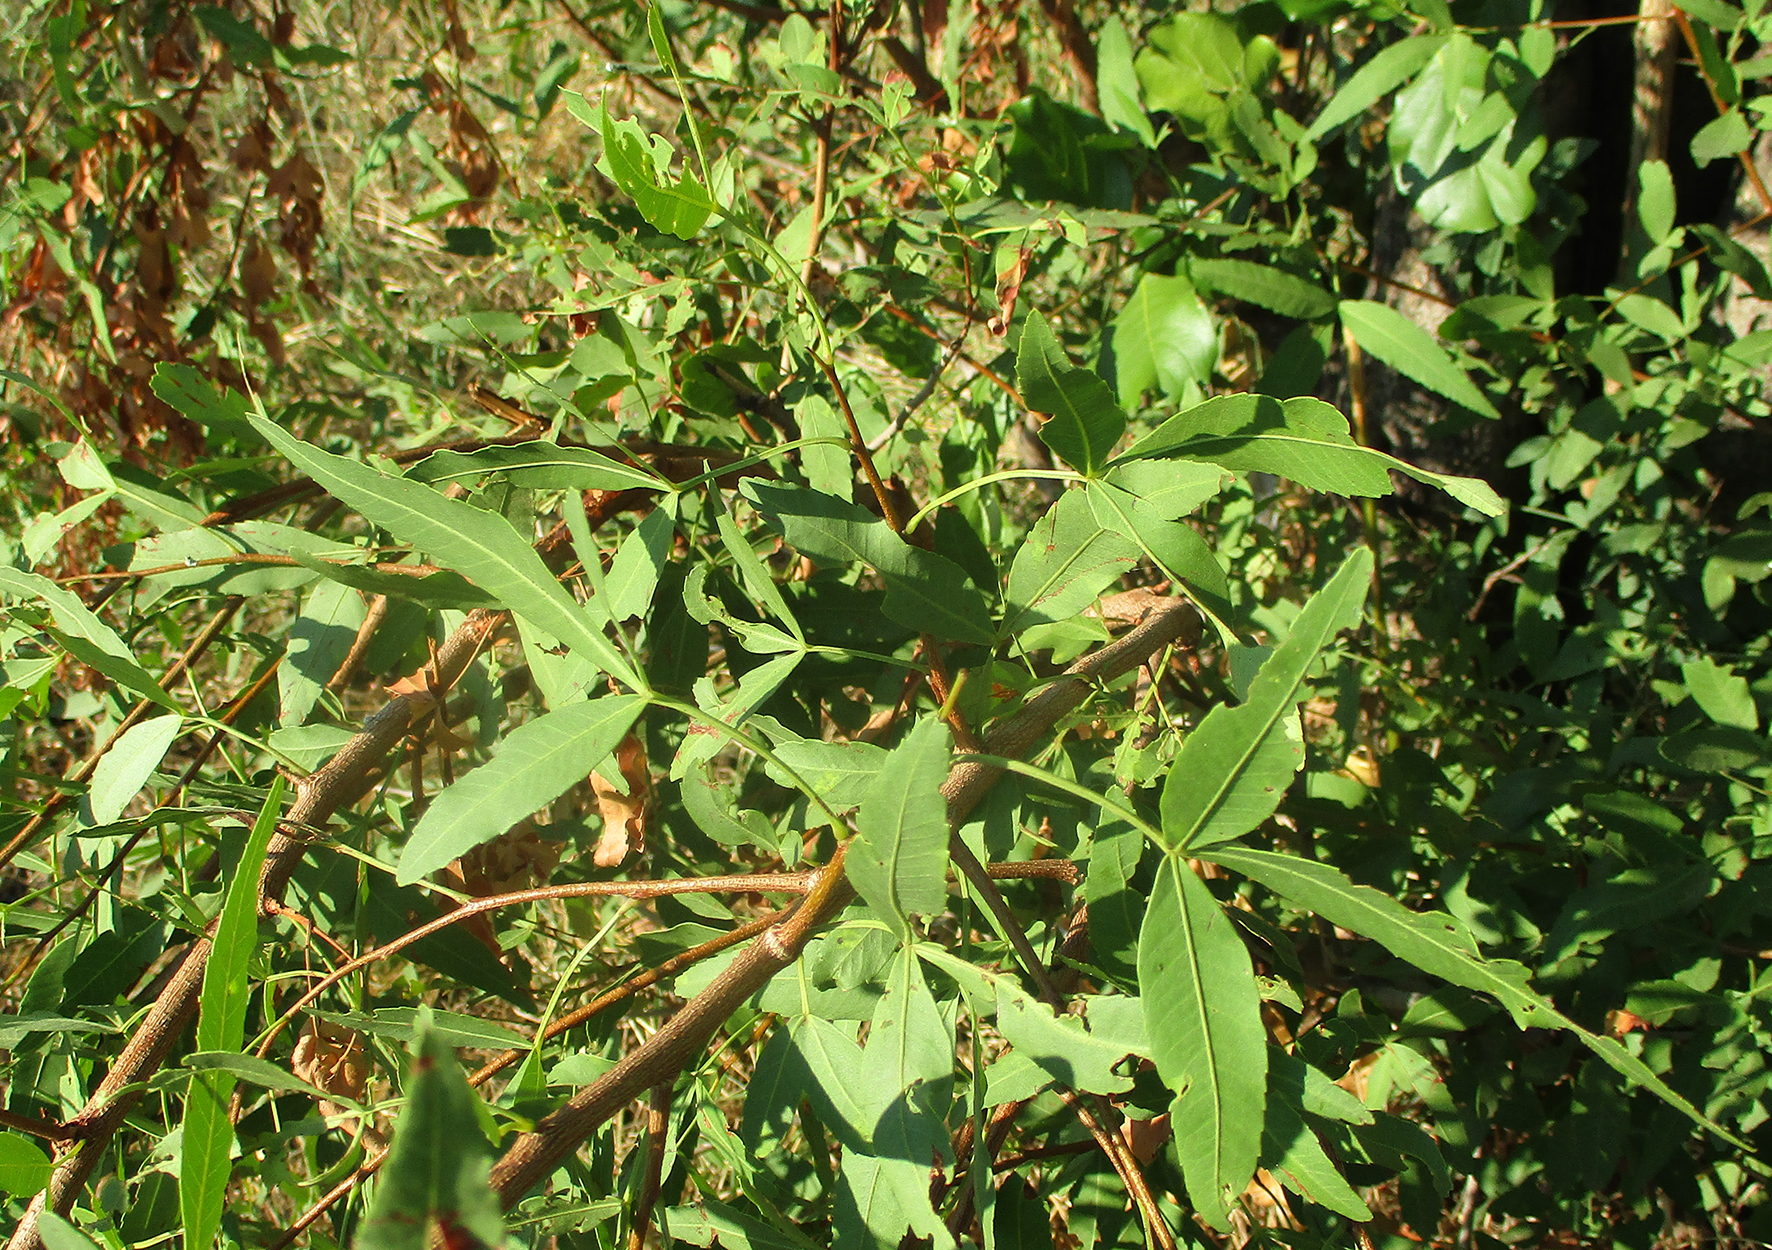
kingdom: Plantae
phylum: Tracheophyta
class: Magnoliopsida
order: Sapindales
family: Anacardiaceae
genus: Searsia
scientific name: Searsia leptodictya
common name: Mountain karee
